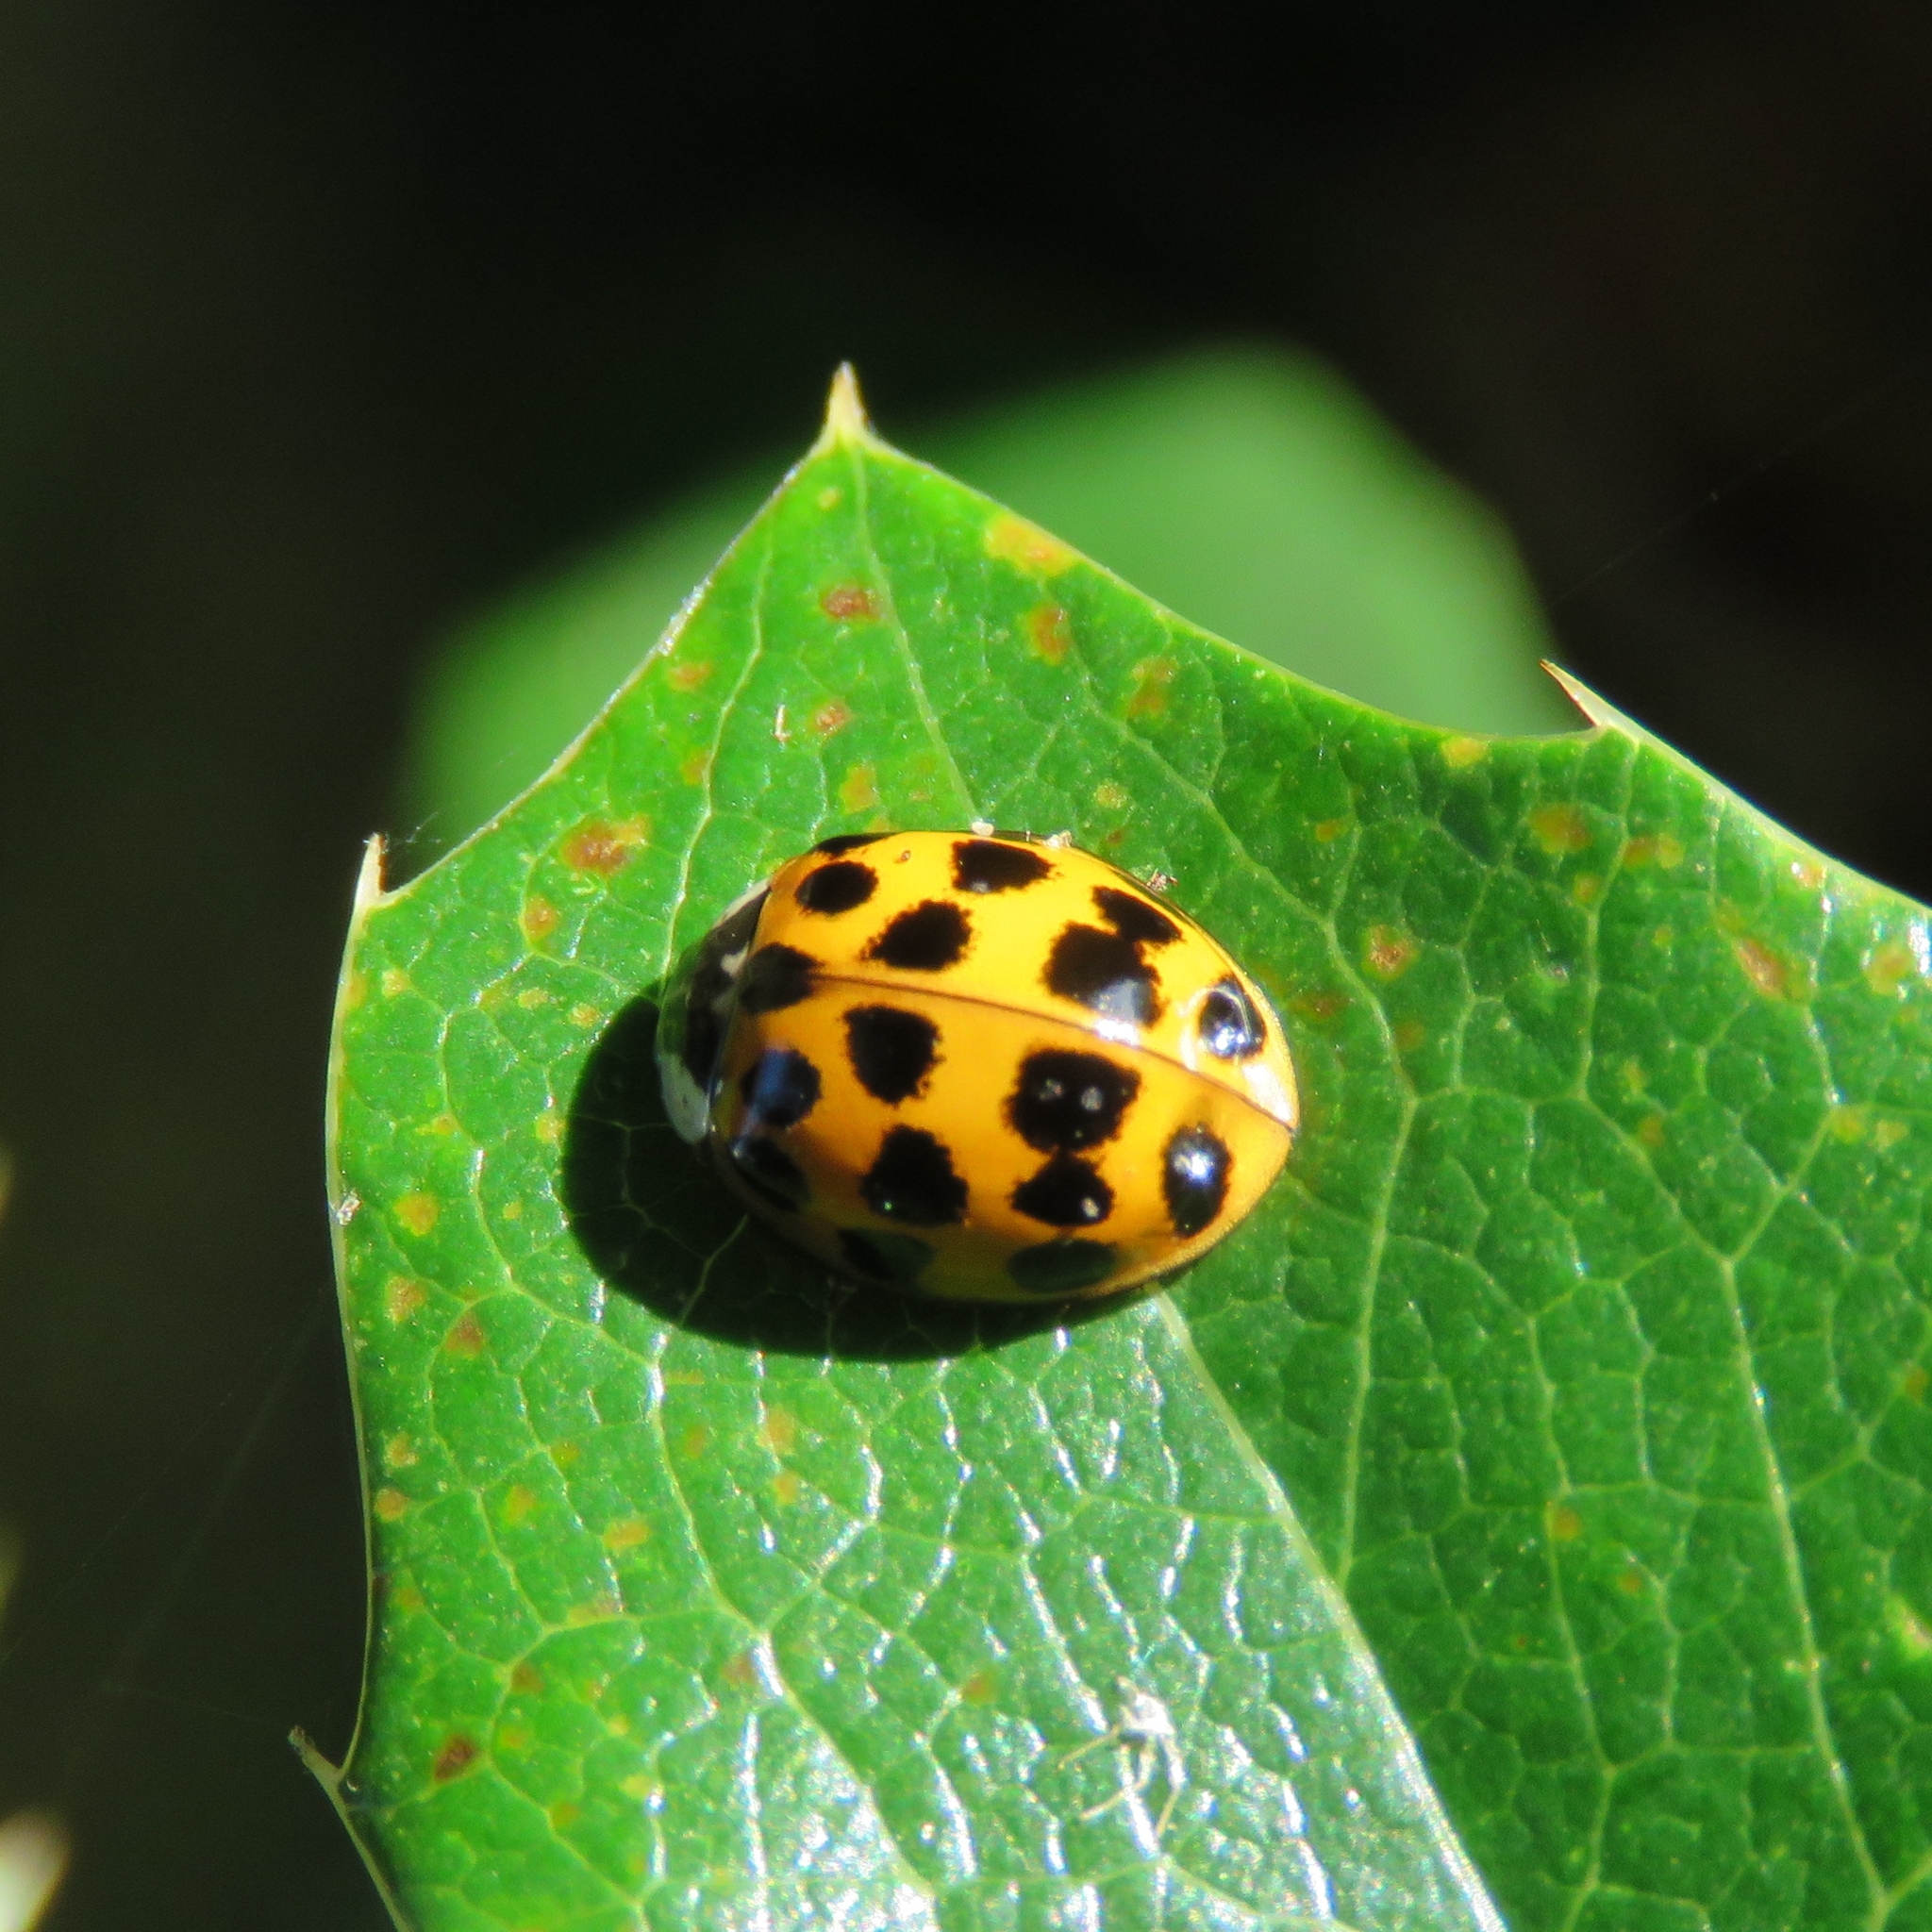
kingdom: Animalia
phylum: Arthropoda
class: Insecta
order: Coleoptera
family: Coccinellidae
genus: Harmonia
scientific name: Harmonia axyridis
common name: Harlequin ladybird
